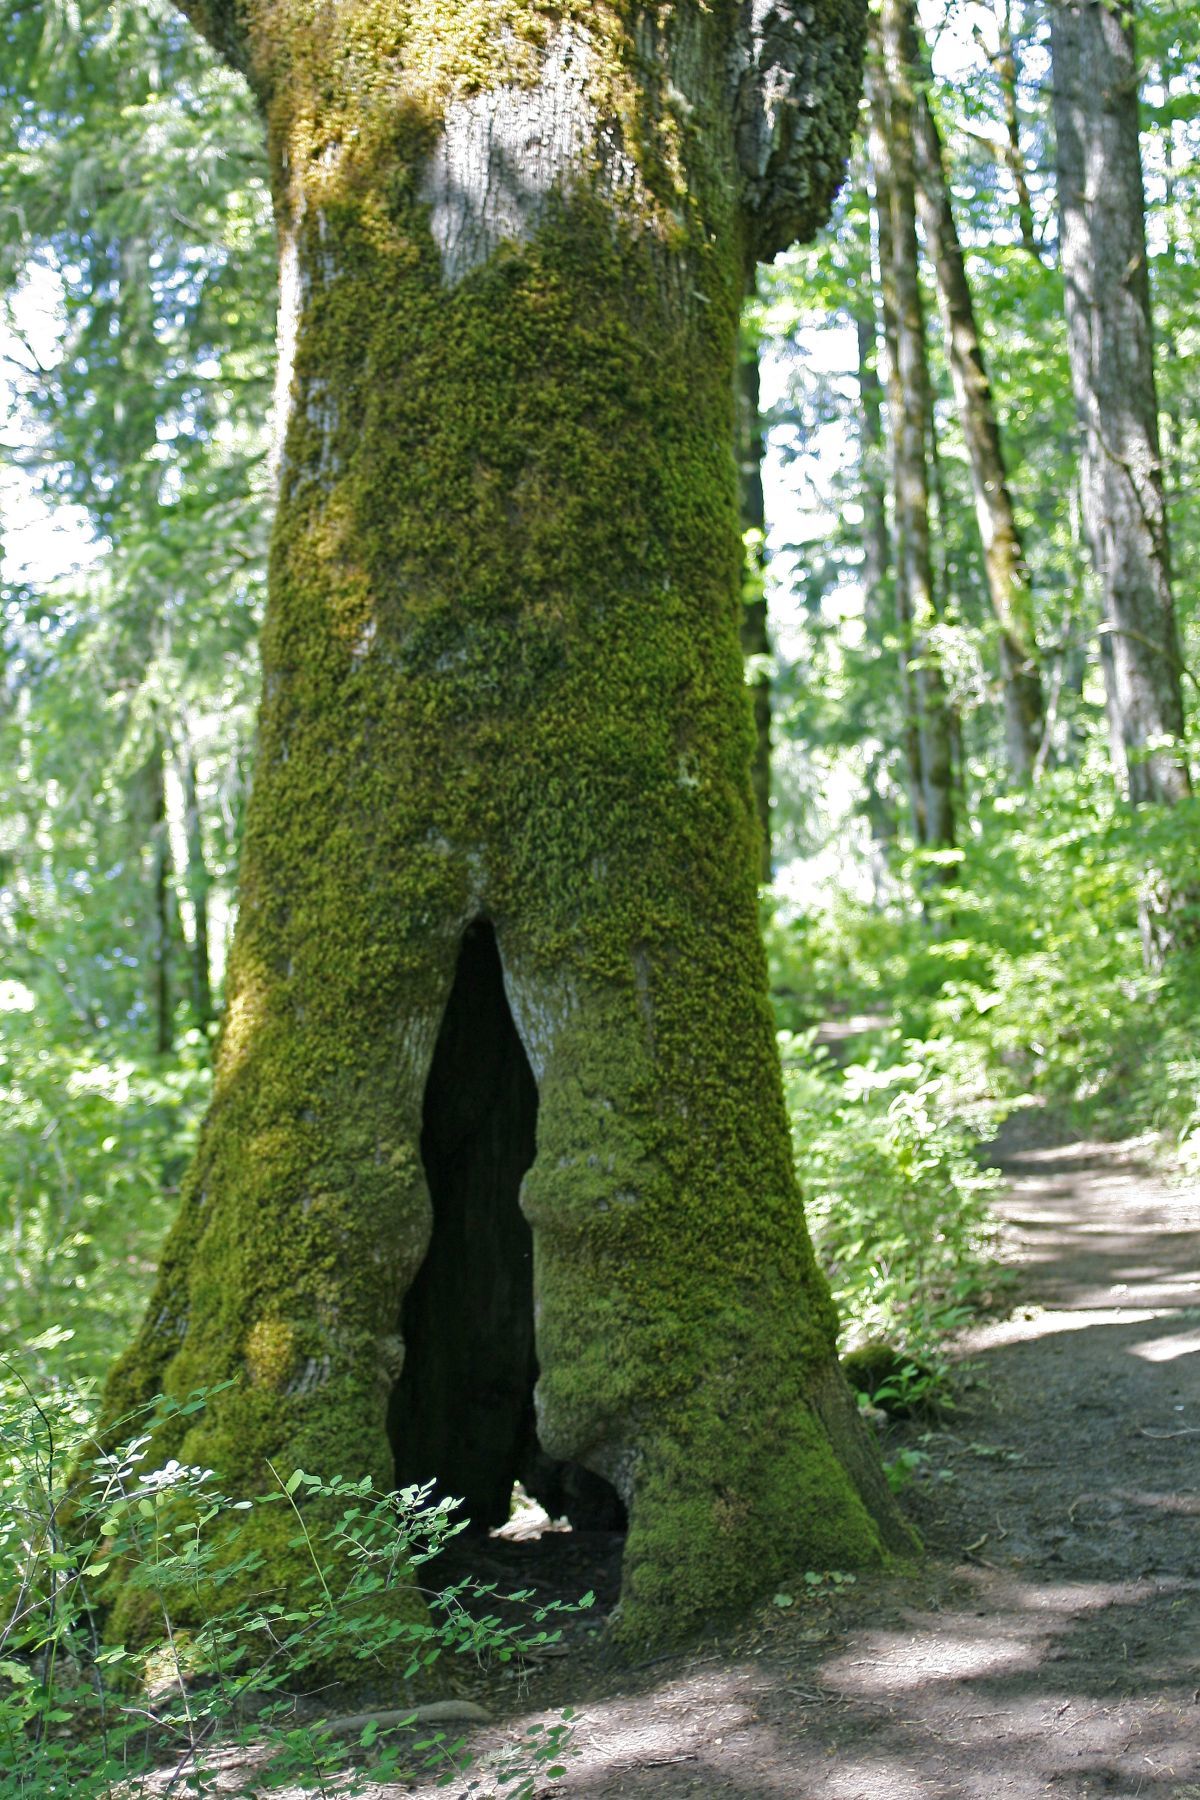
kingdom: Plantae
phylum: Tracheophyta
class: Magnoliopsida
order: Fagales
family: Fagaceae
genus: Quercus
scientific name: Quercus garryana
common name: Garry oak
